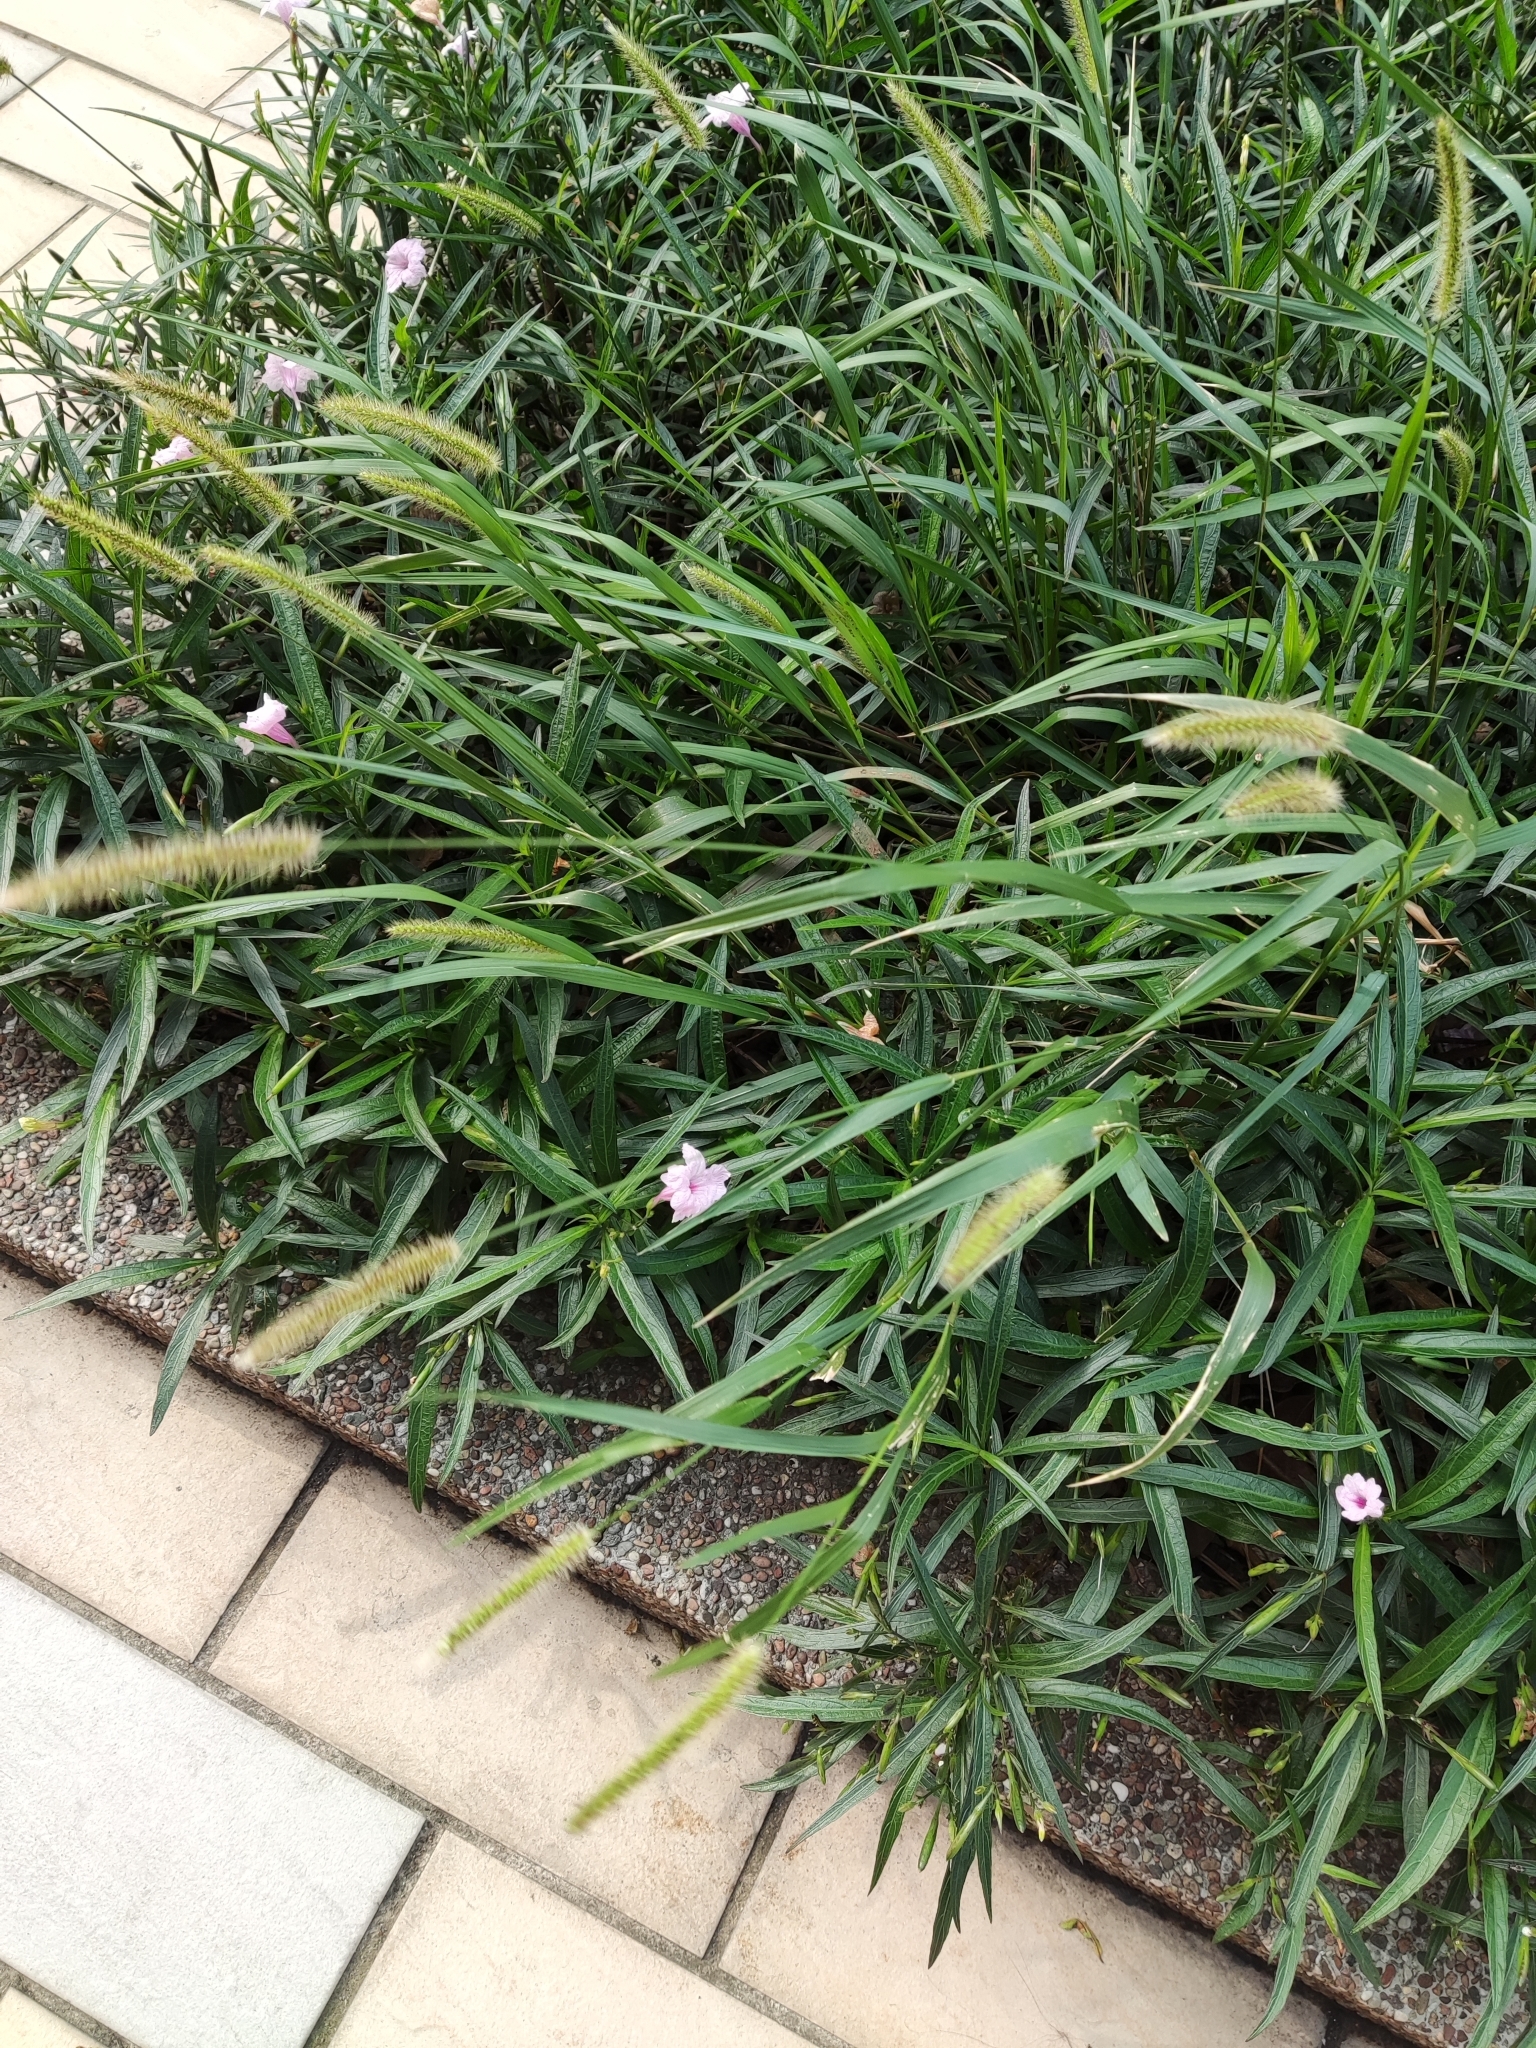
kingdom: Plantae
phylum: Tracheophyta
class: Liliopsida
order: Poales
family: Poaceae
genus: Setaria
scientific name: Setaria parviflora
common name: Knotroot bristle-grass
